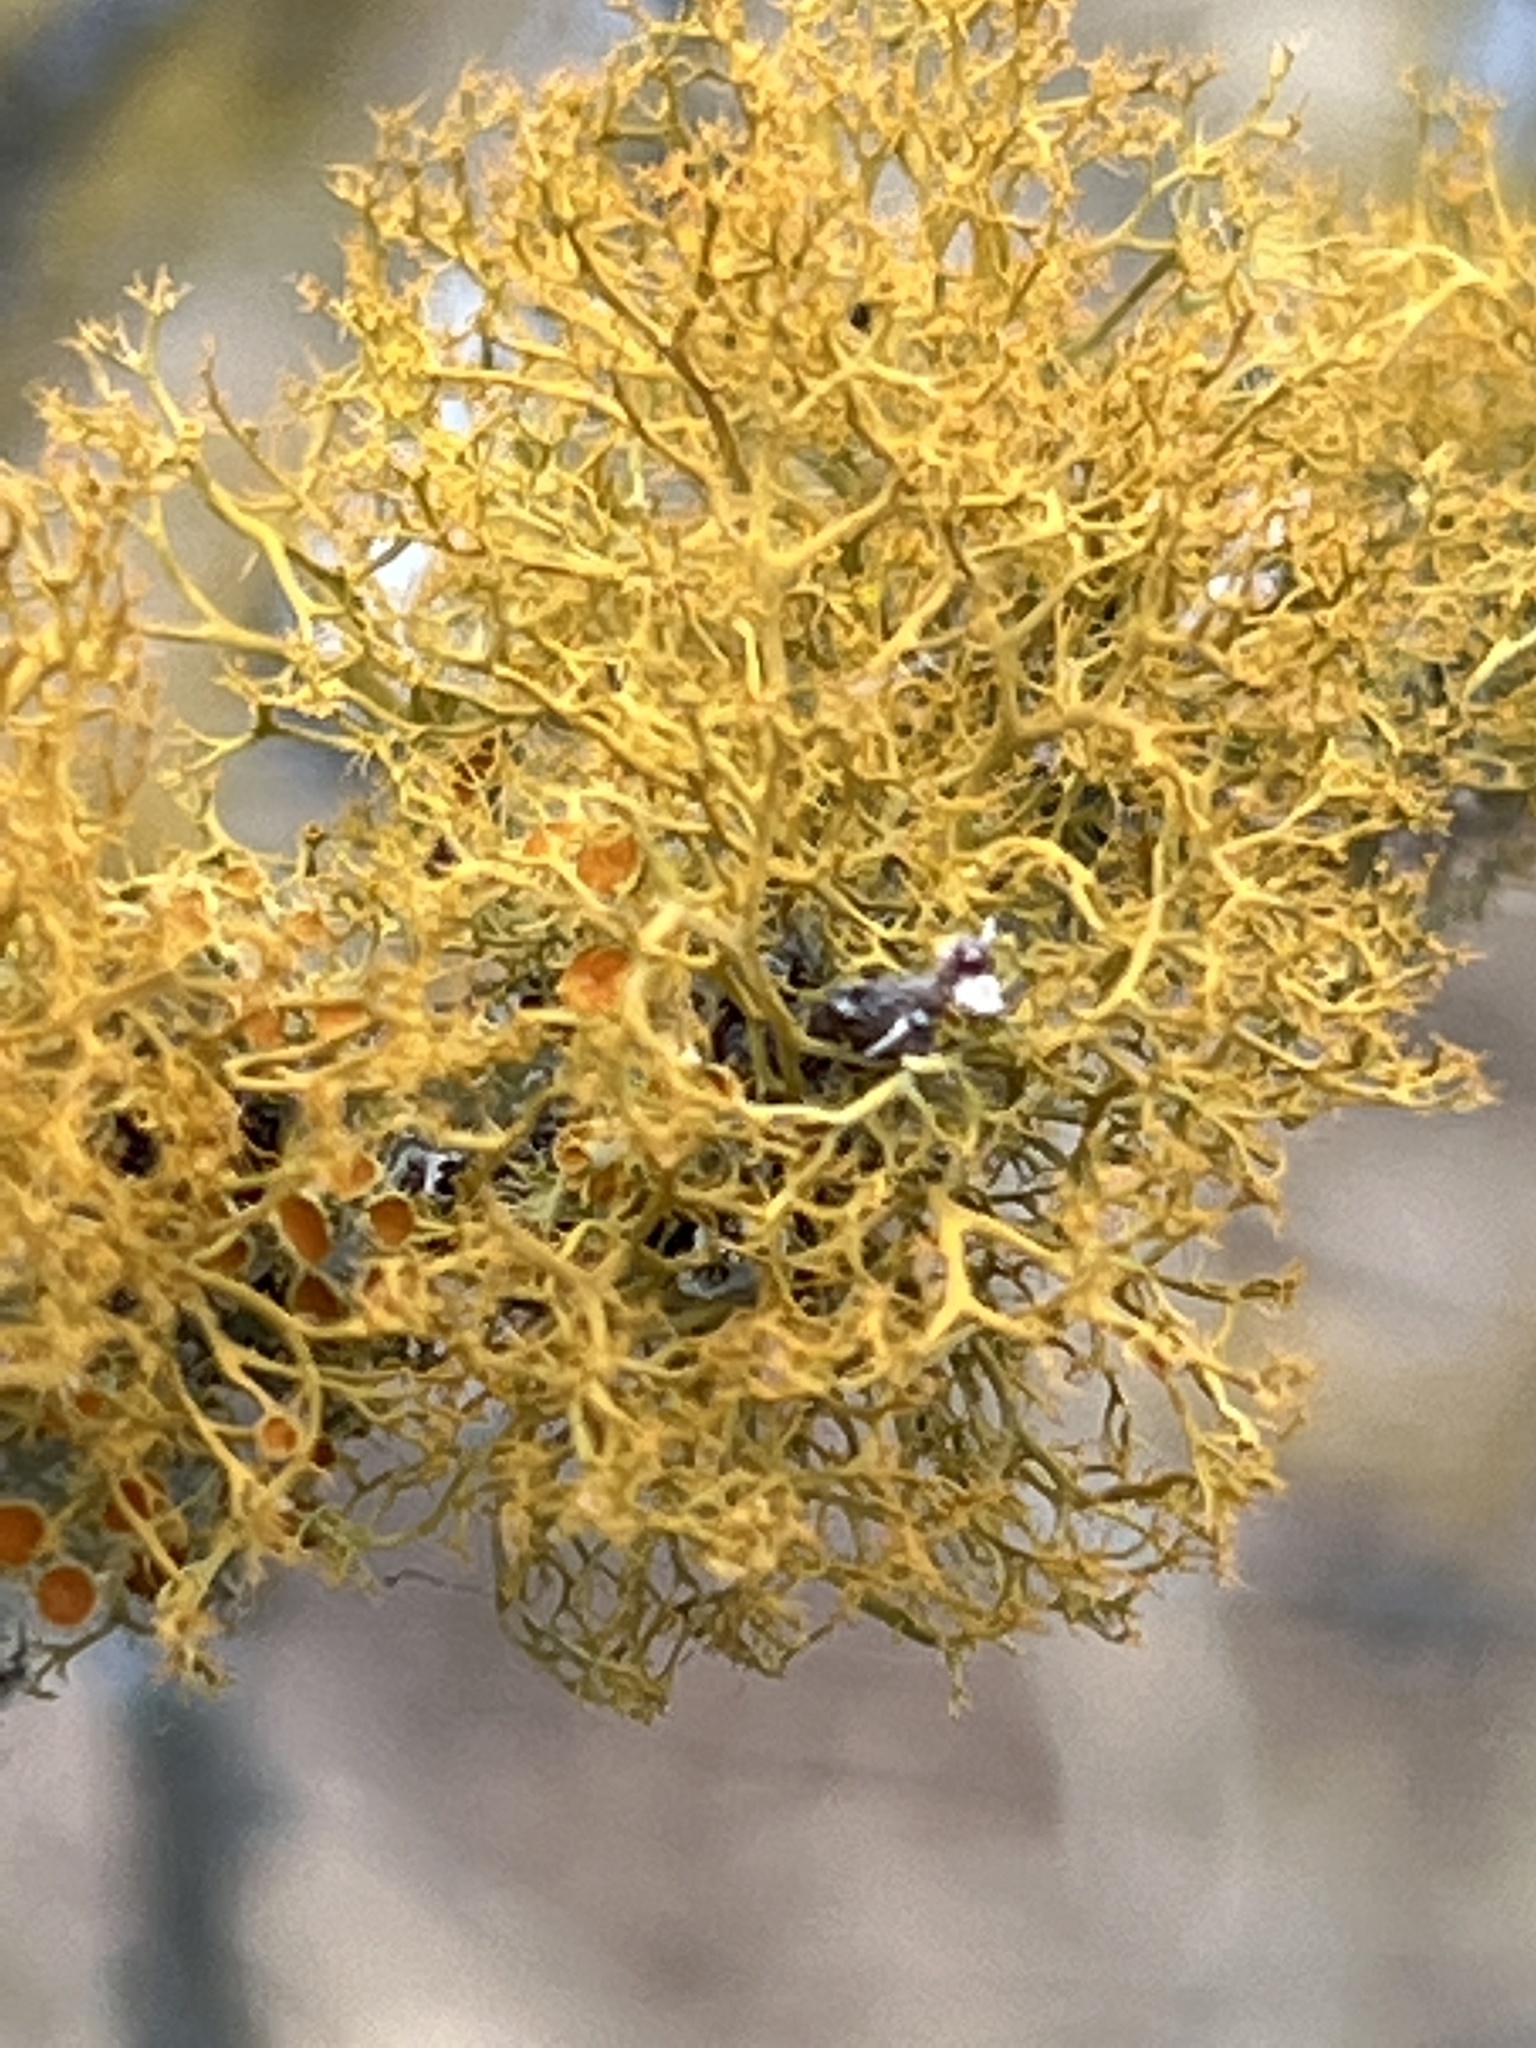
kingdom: Fungi
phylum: Ascomycota
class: Lecanoromycetes
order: Teloschistales
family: Teloschistaceae
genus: Teloschistes
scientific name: Teloschistes exilis
